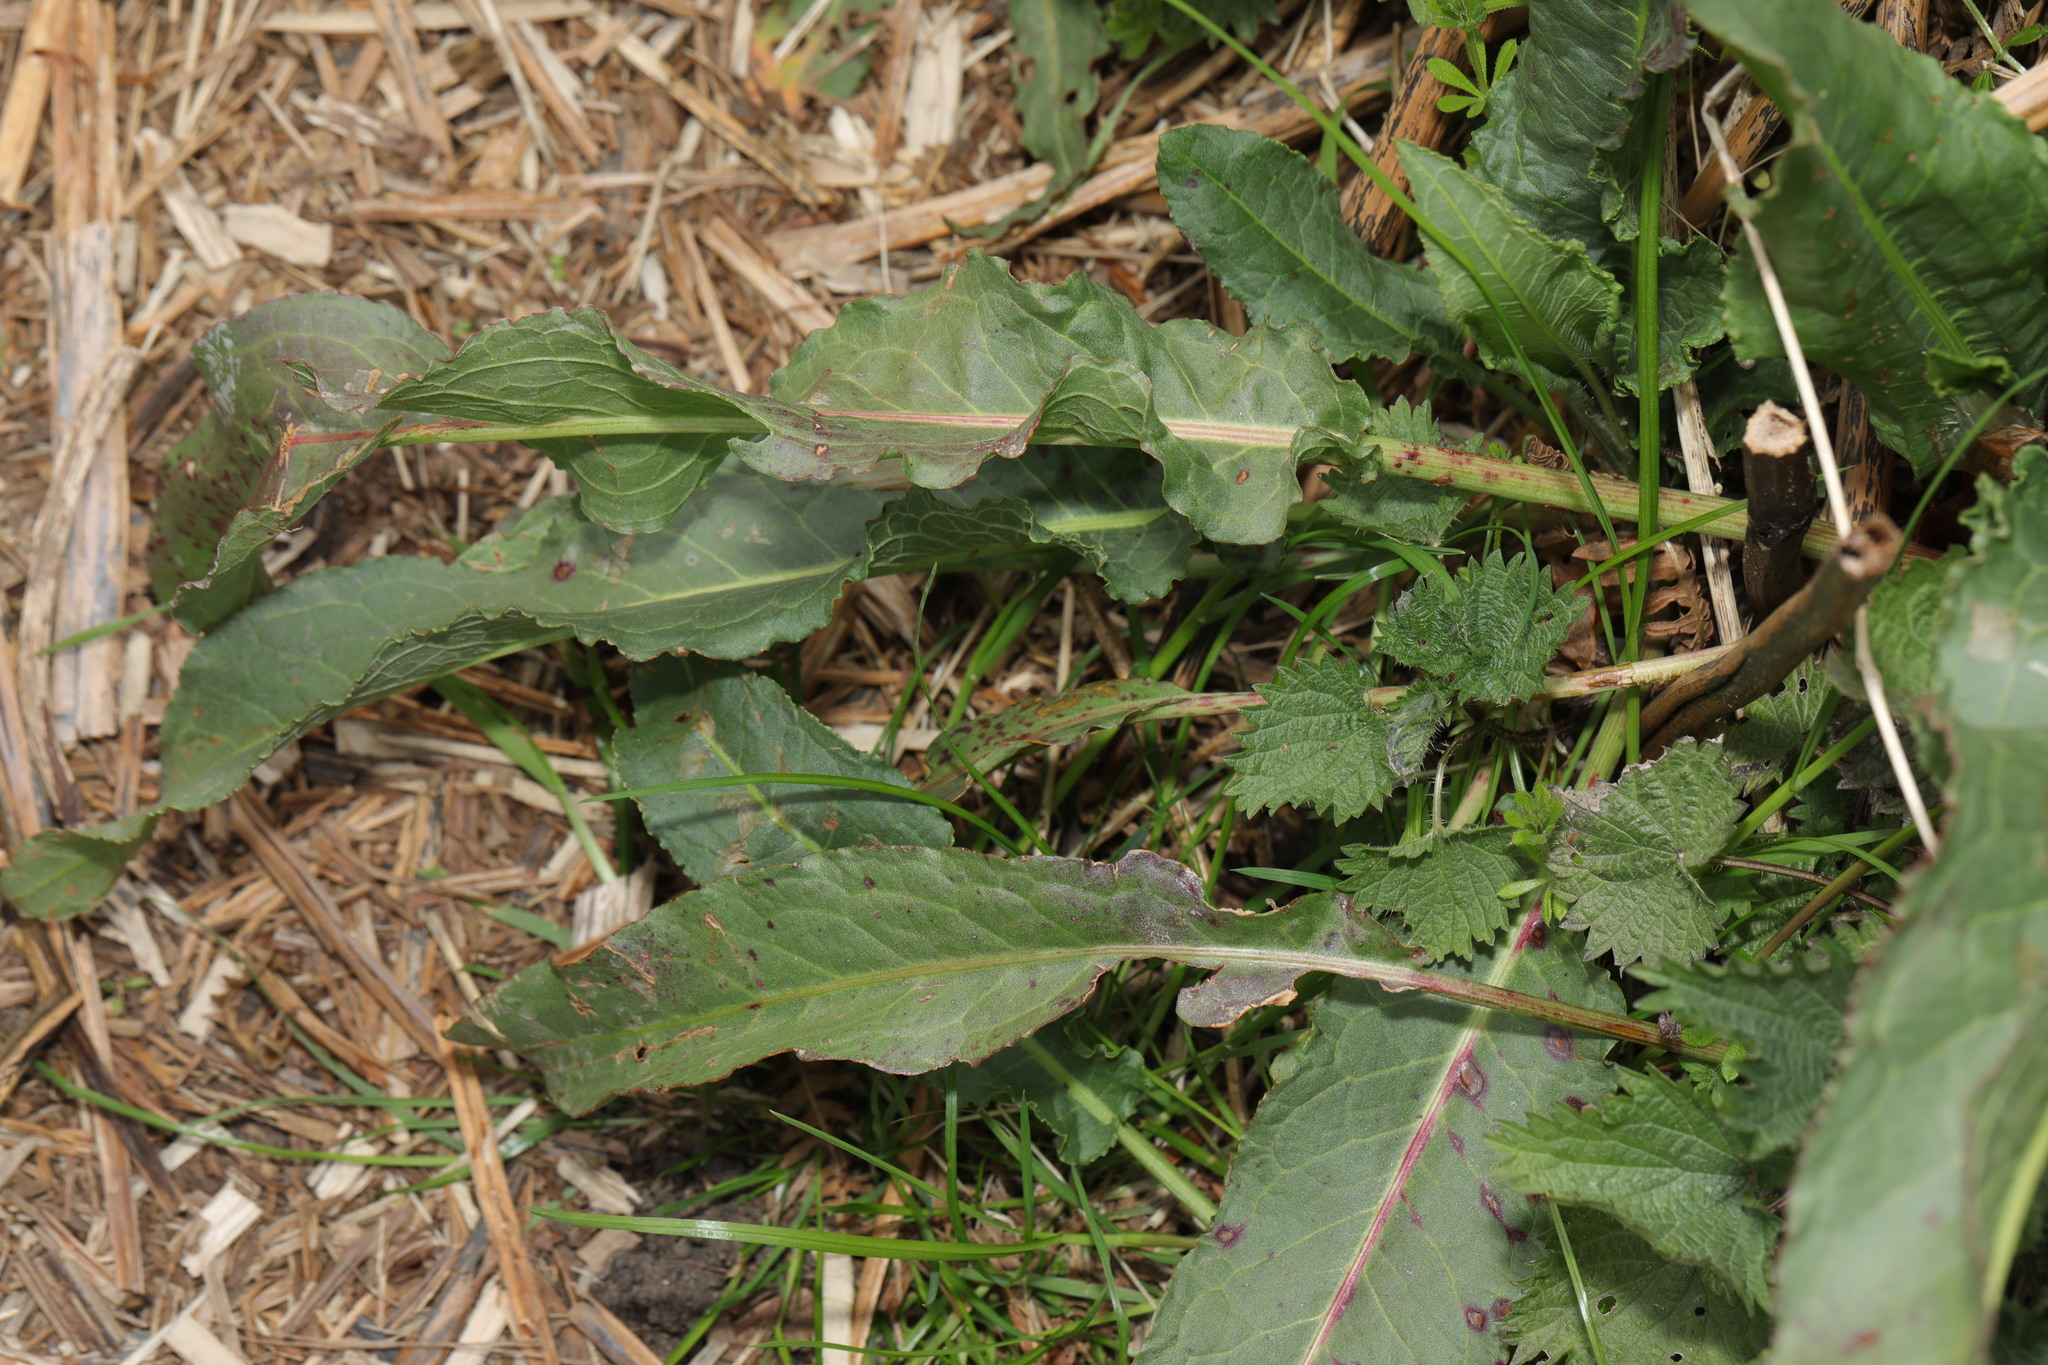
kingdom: Plantae
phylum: Tracheophyta
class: Magnoliopsida
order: Caryophyllales
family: Polygonaceae
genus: Rumex
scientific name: Rumex crispus
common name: Curled dock
